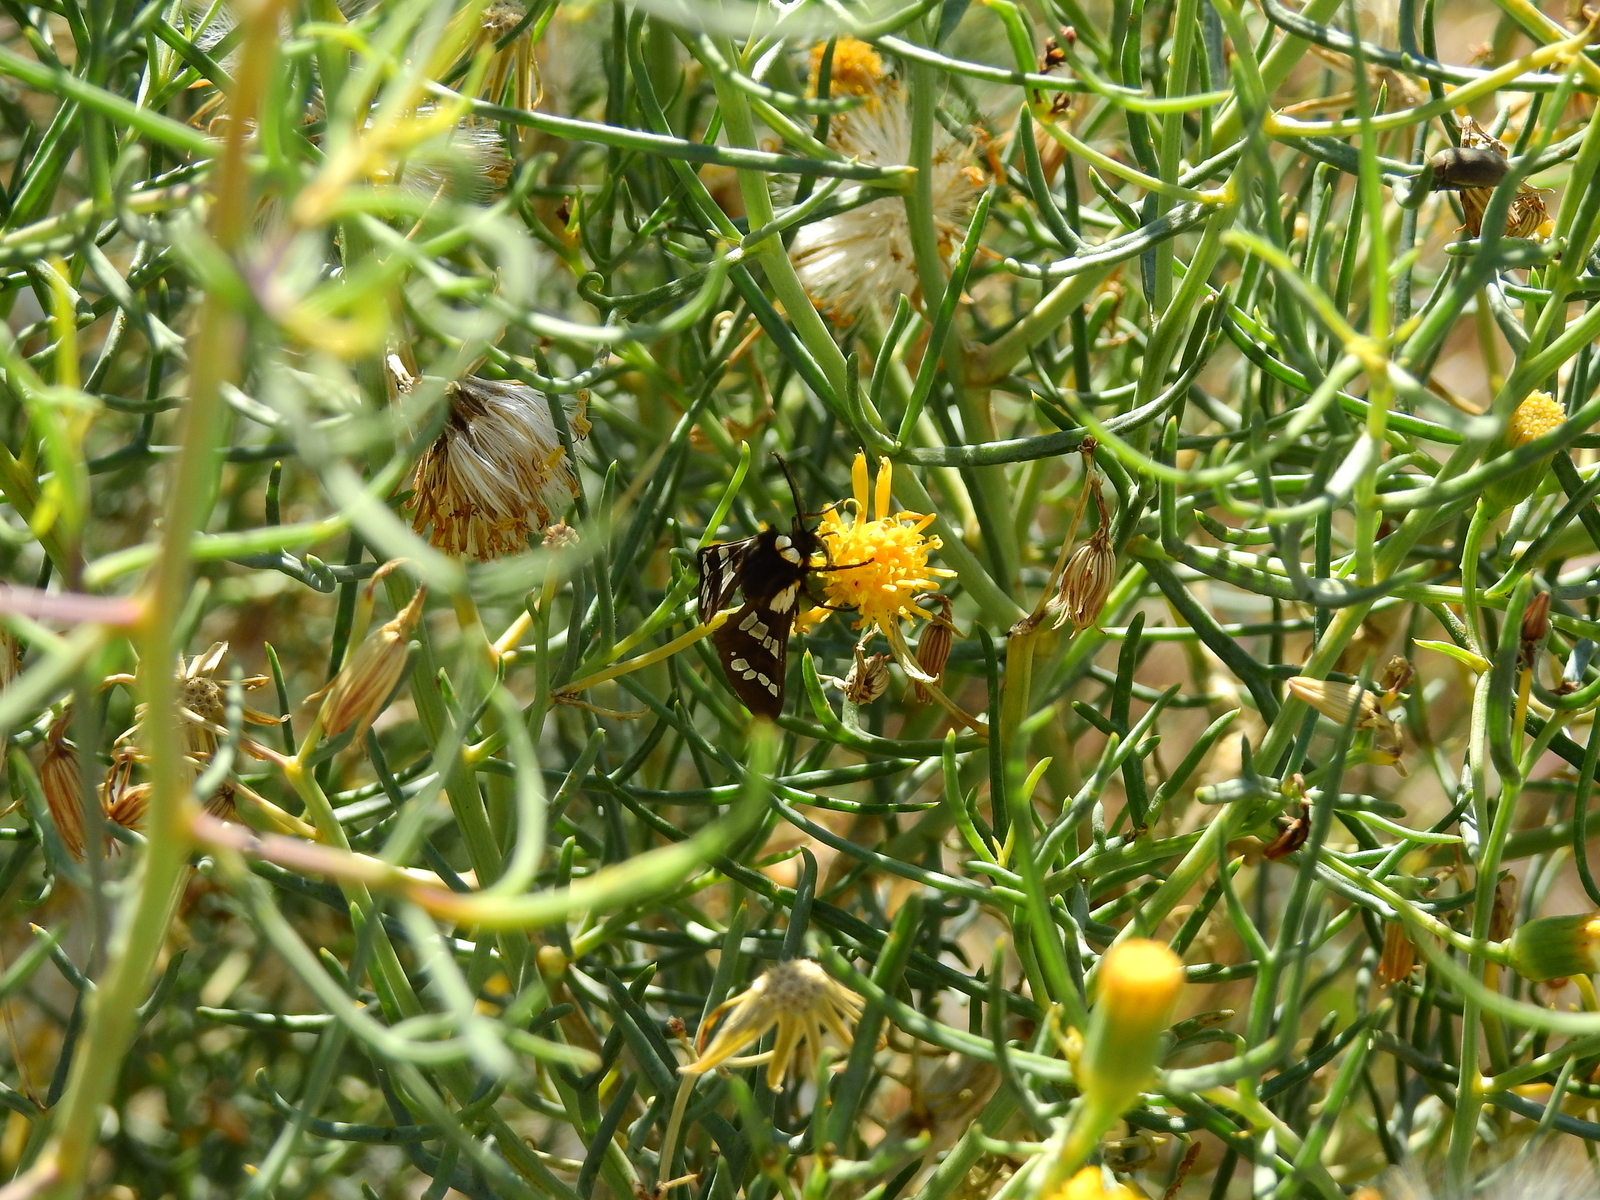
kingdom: Animalia
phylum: Arthropoda
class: Insecta
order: Lepidoptera
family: Erebidae
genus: Eurata
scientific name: Eurata
